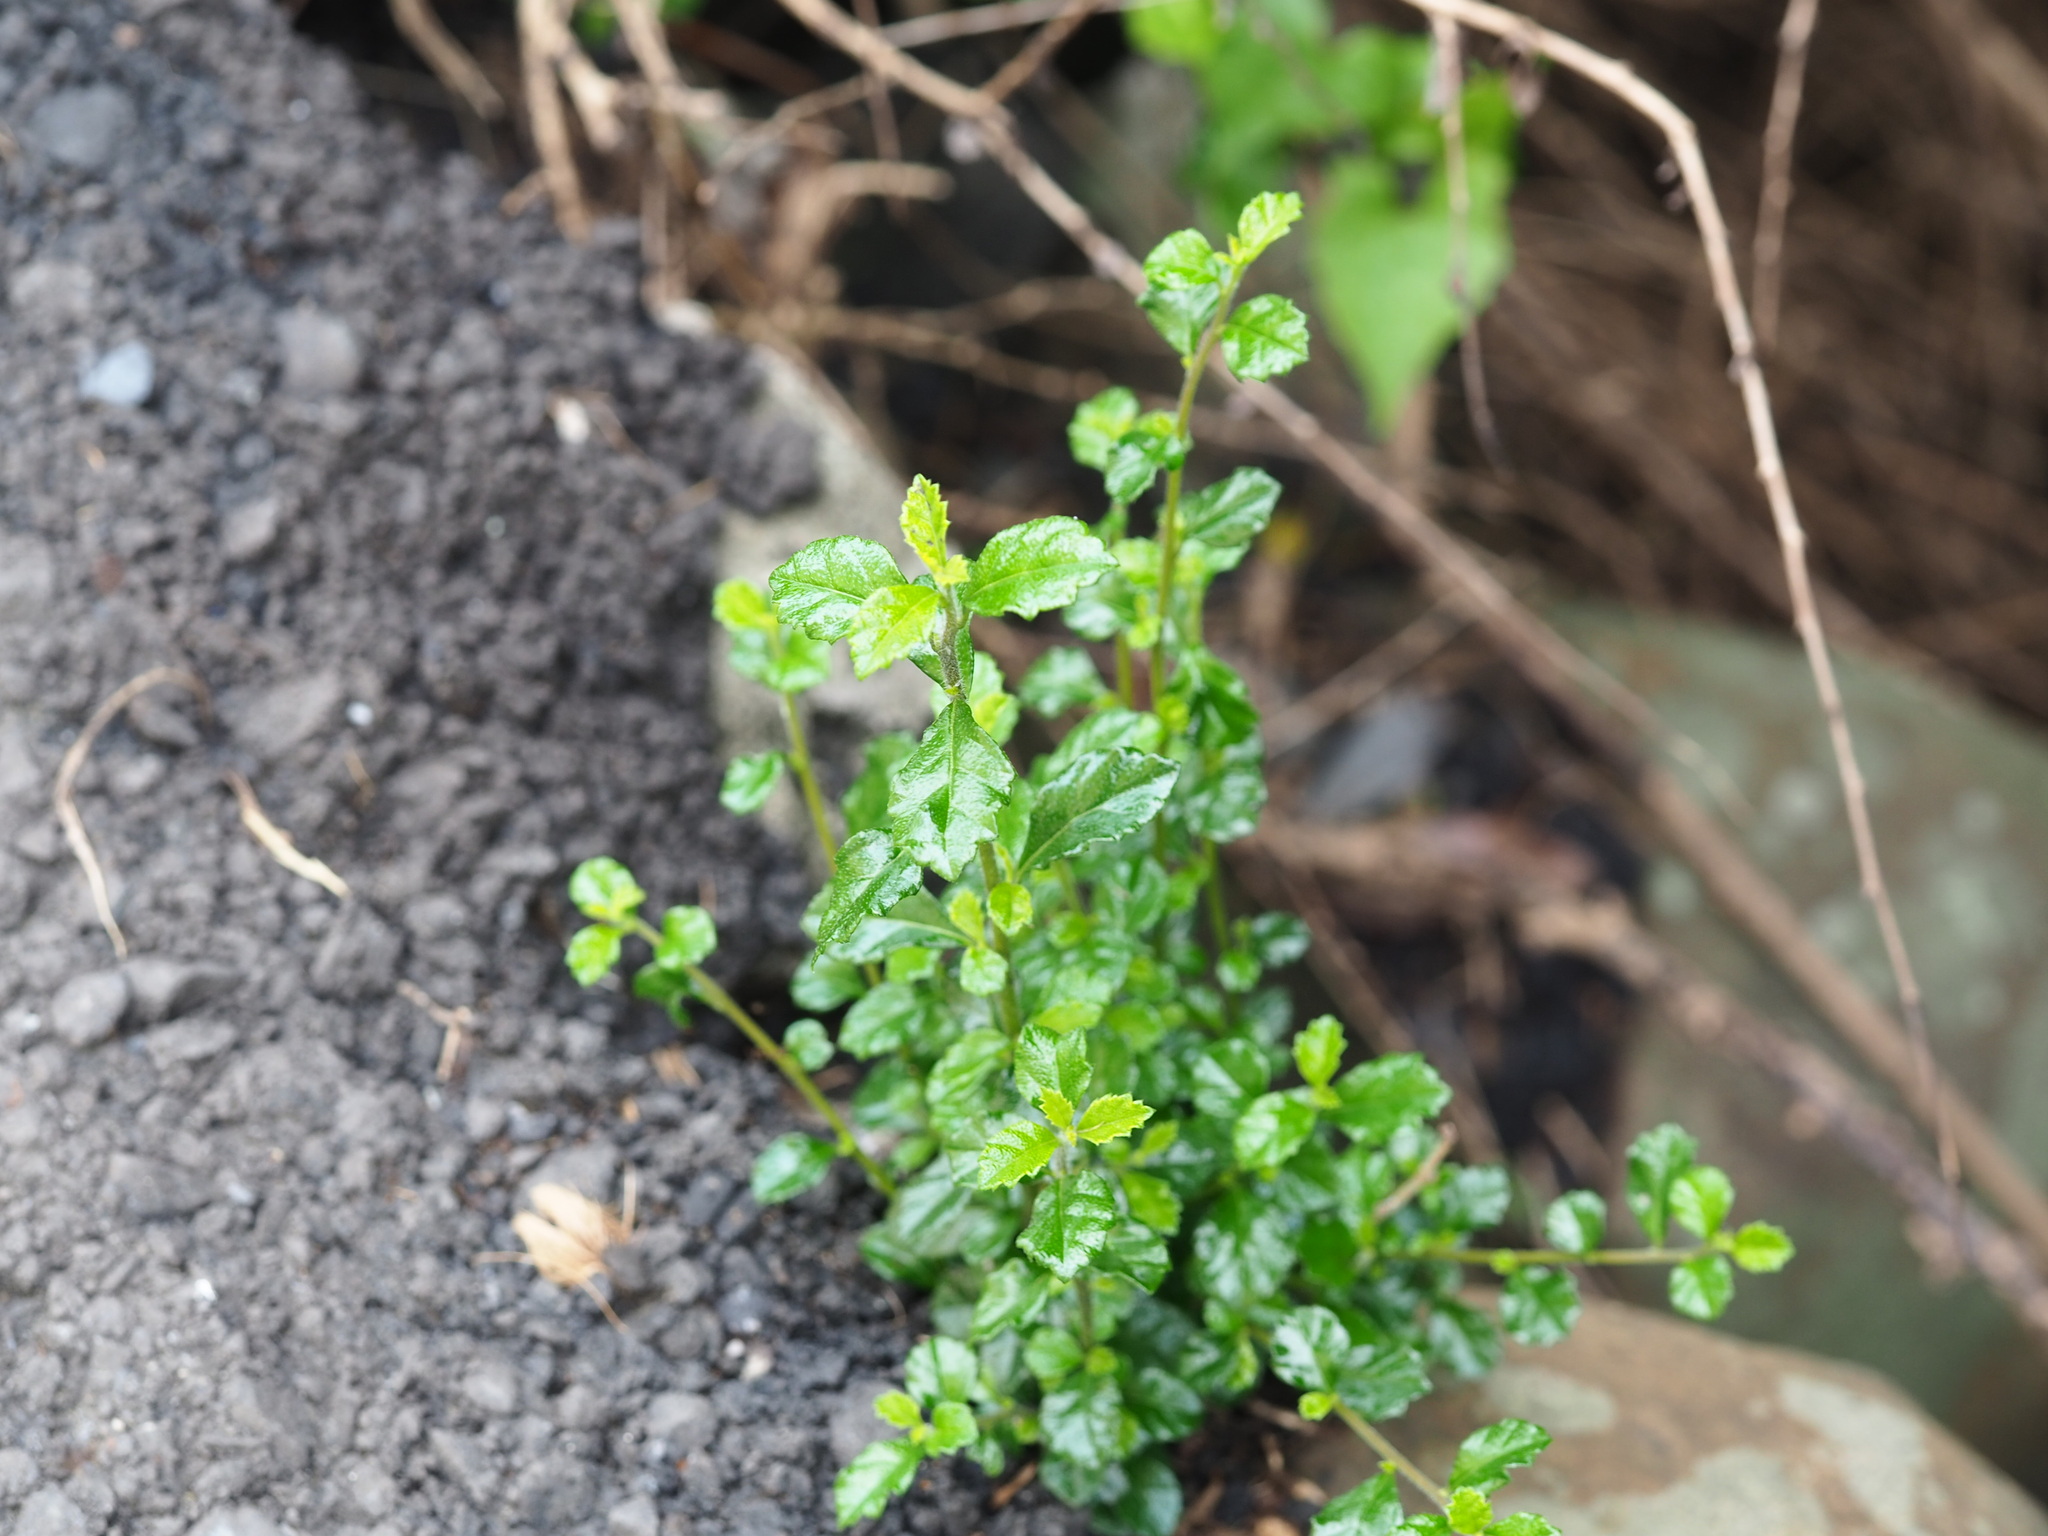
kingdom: Plantae
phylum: Tracheophyta
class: Magnoliopsida
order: Boraginales
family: Ehretiaceae
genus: Ehretia
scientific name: Ehretia microphylla
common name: Fukien-tea
